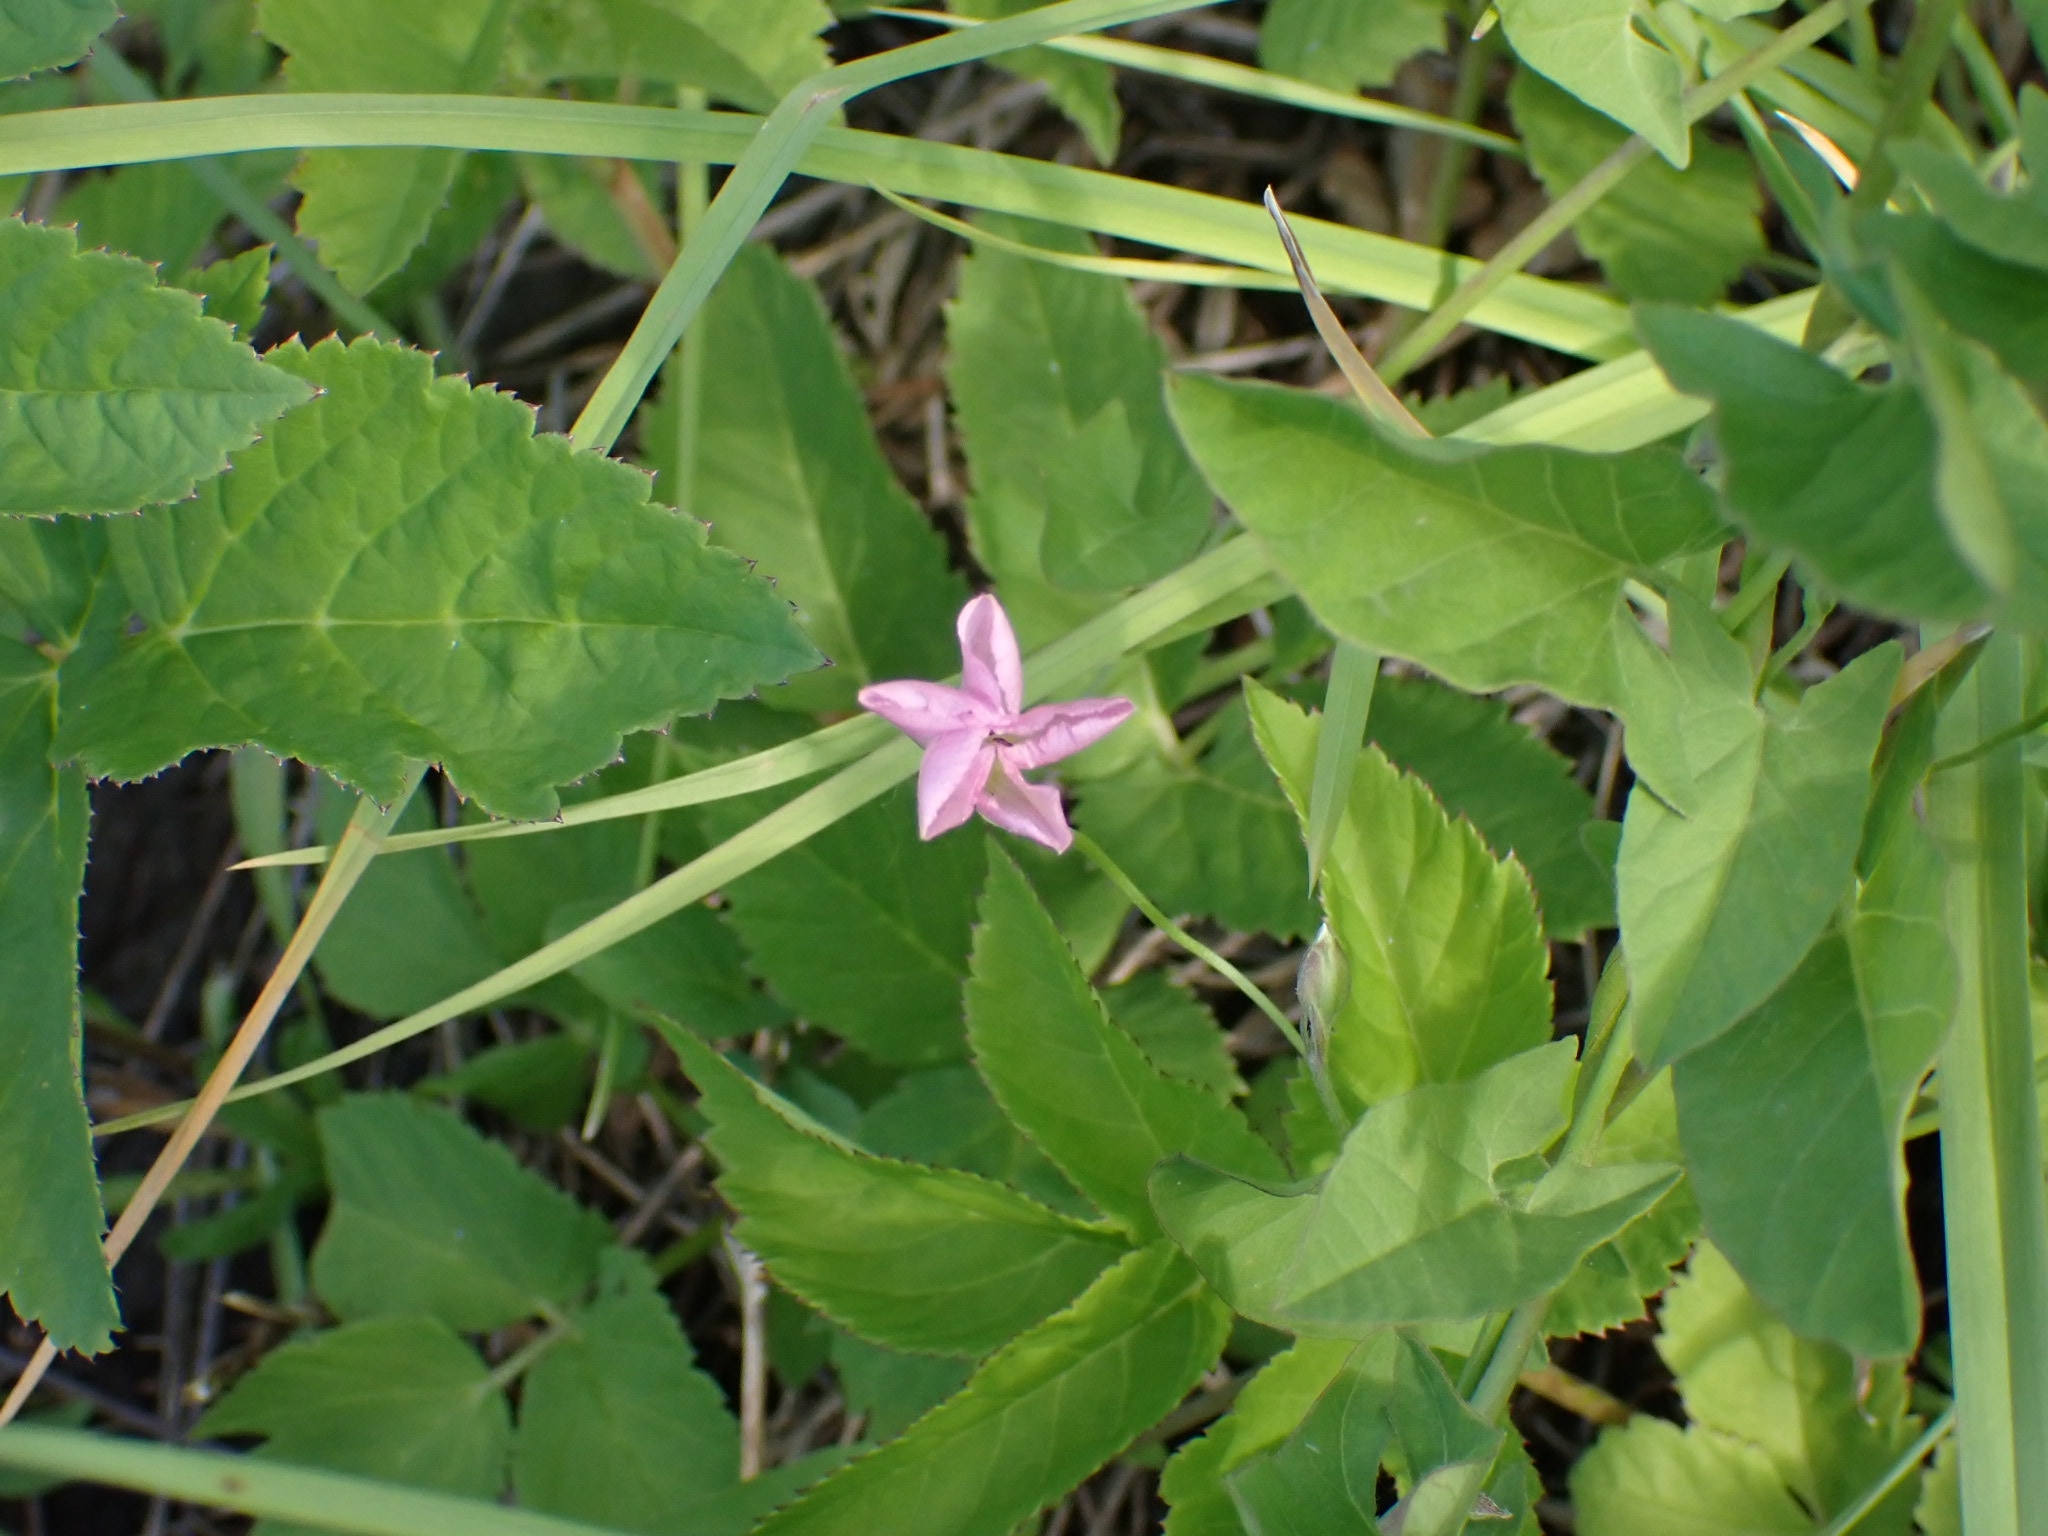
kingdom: Plantae
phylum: Tracheophyta
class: Magnoliopsida
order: Solanales
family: Convolvulaceae
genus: Convolvulus
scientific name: Convolvulus arvensis
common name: Field bindweed
